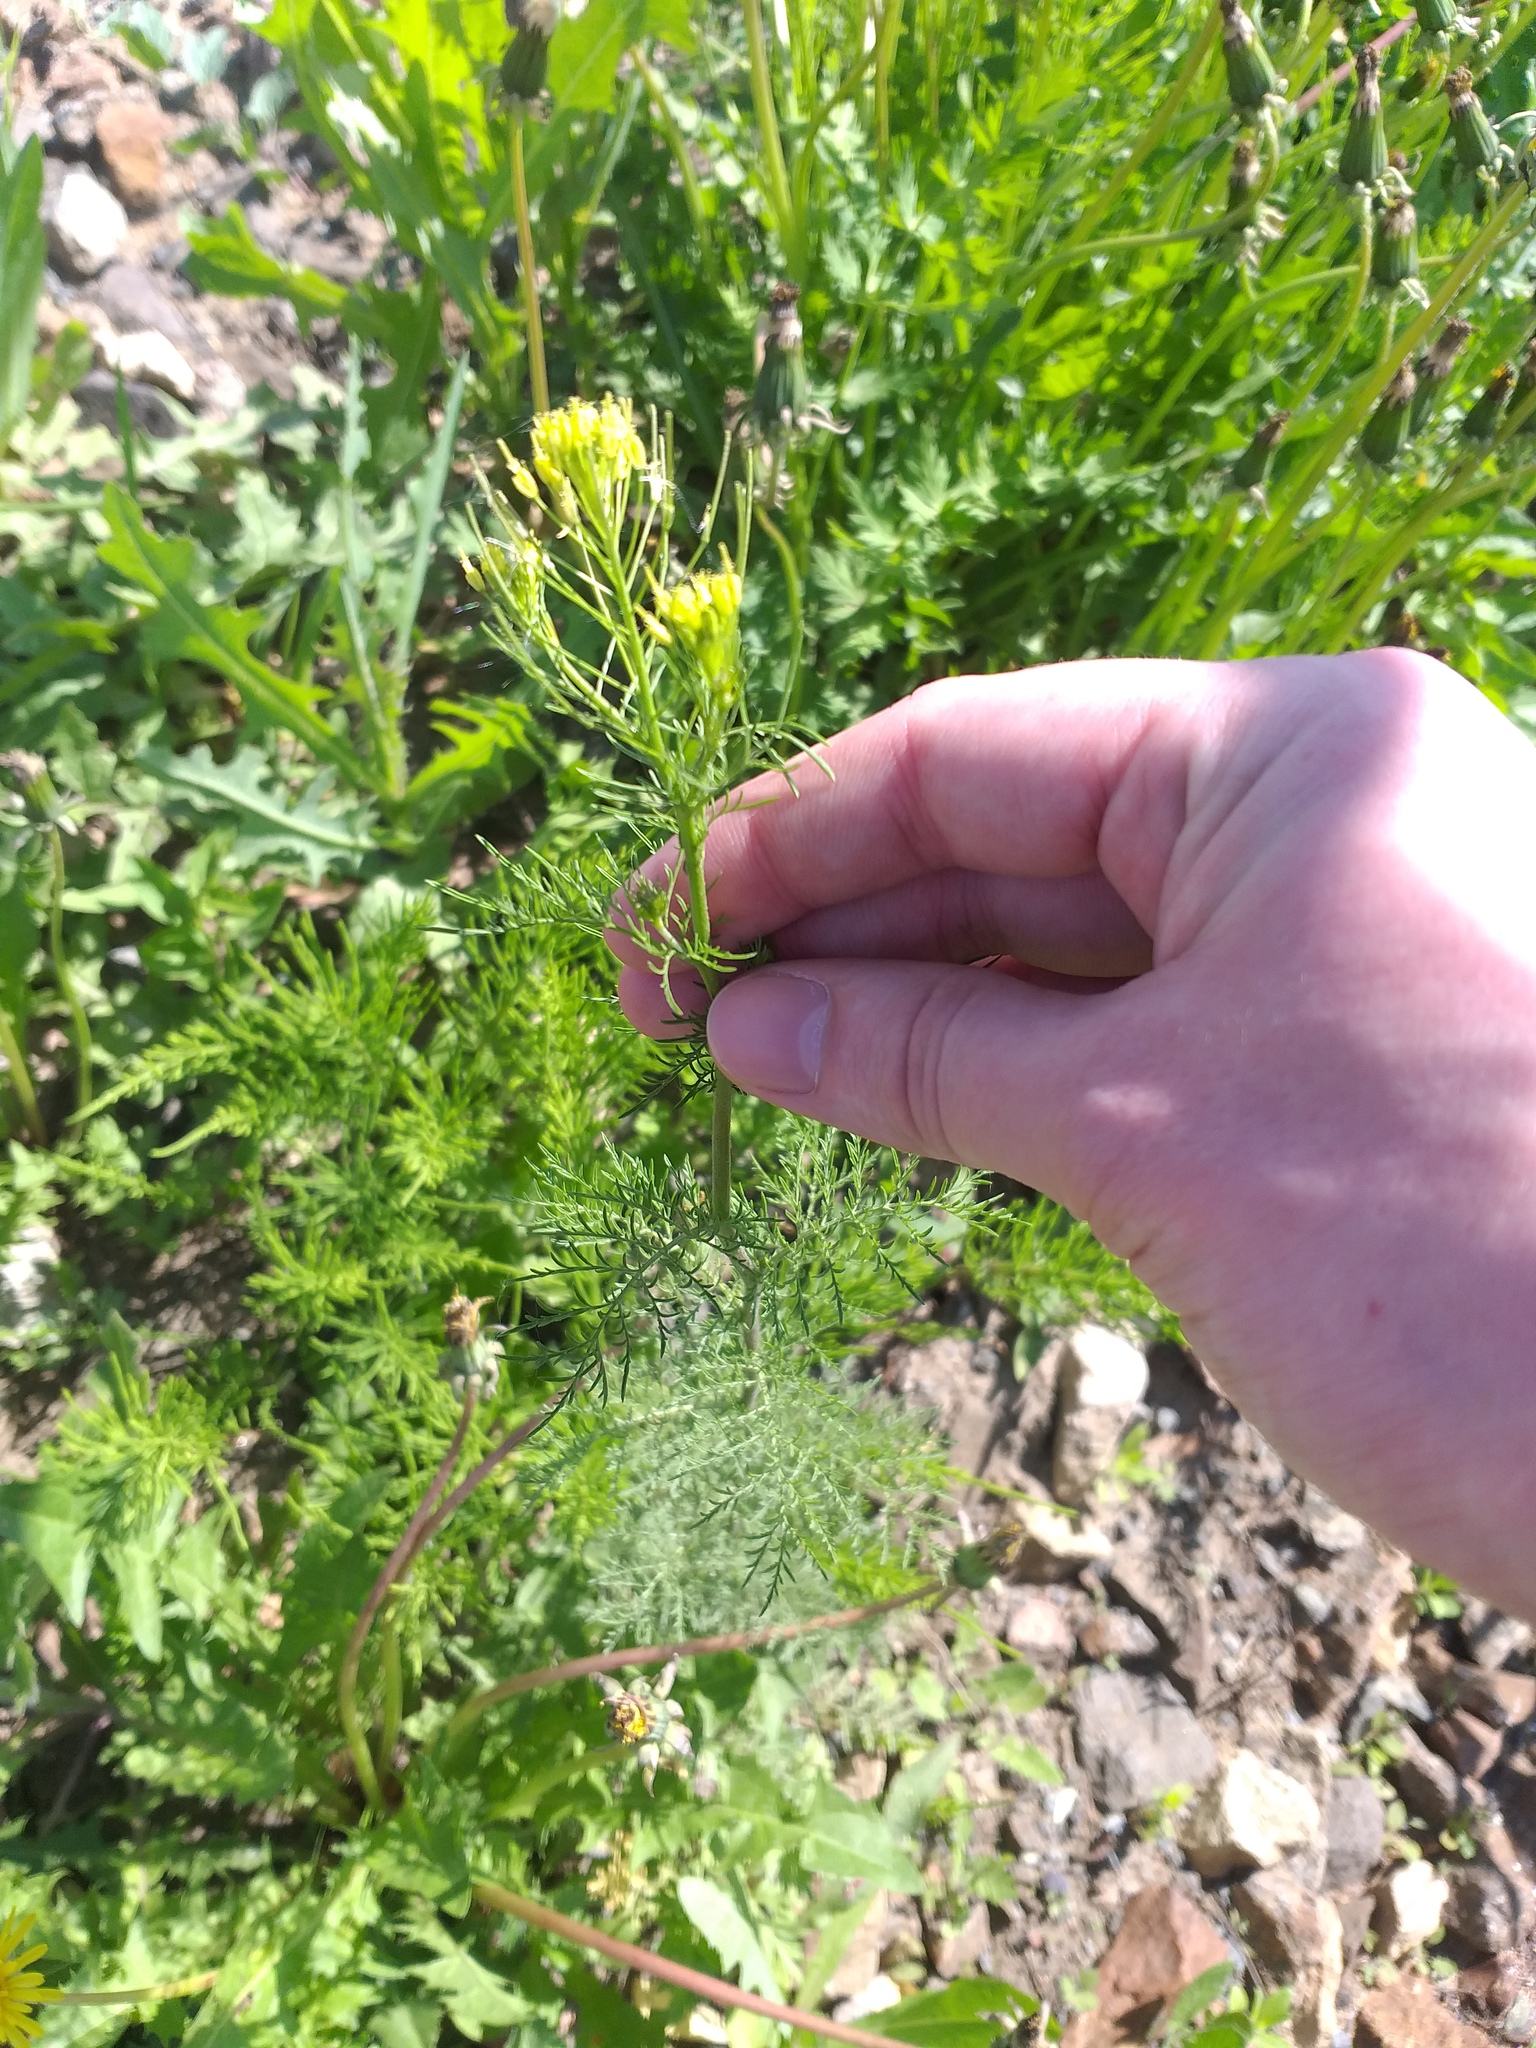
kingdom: Plantae
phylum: Tracheophyta
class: Magnoliopsida
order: Brassicales
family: Brassicaceae
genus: Descurainia
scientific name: Descurainia sophia
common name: Flixweed
